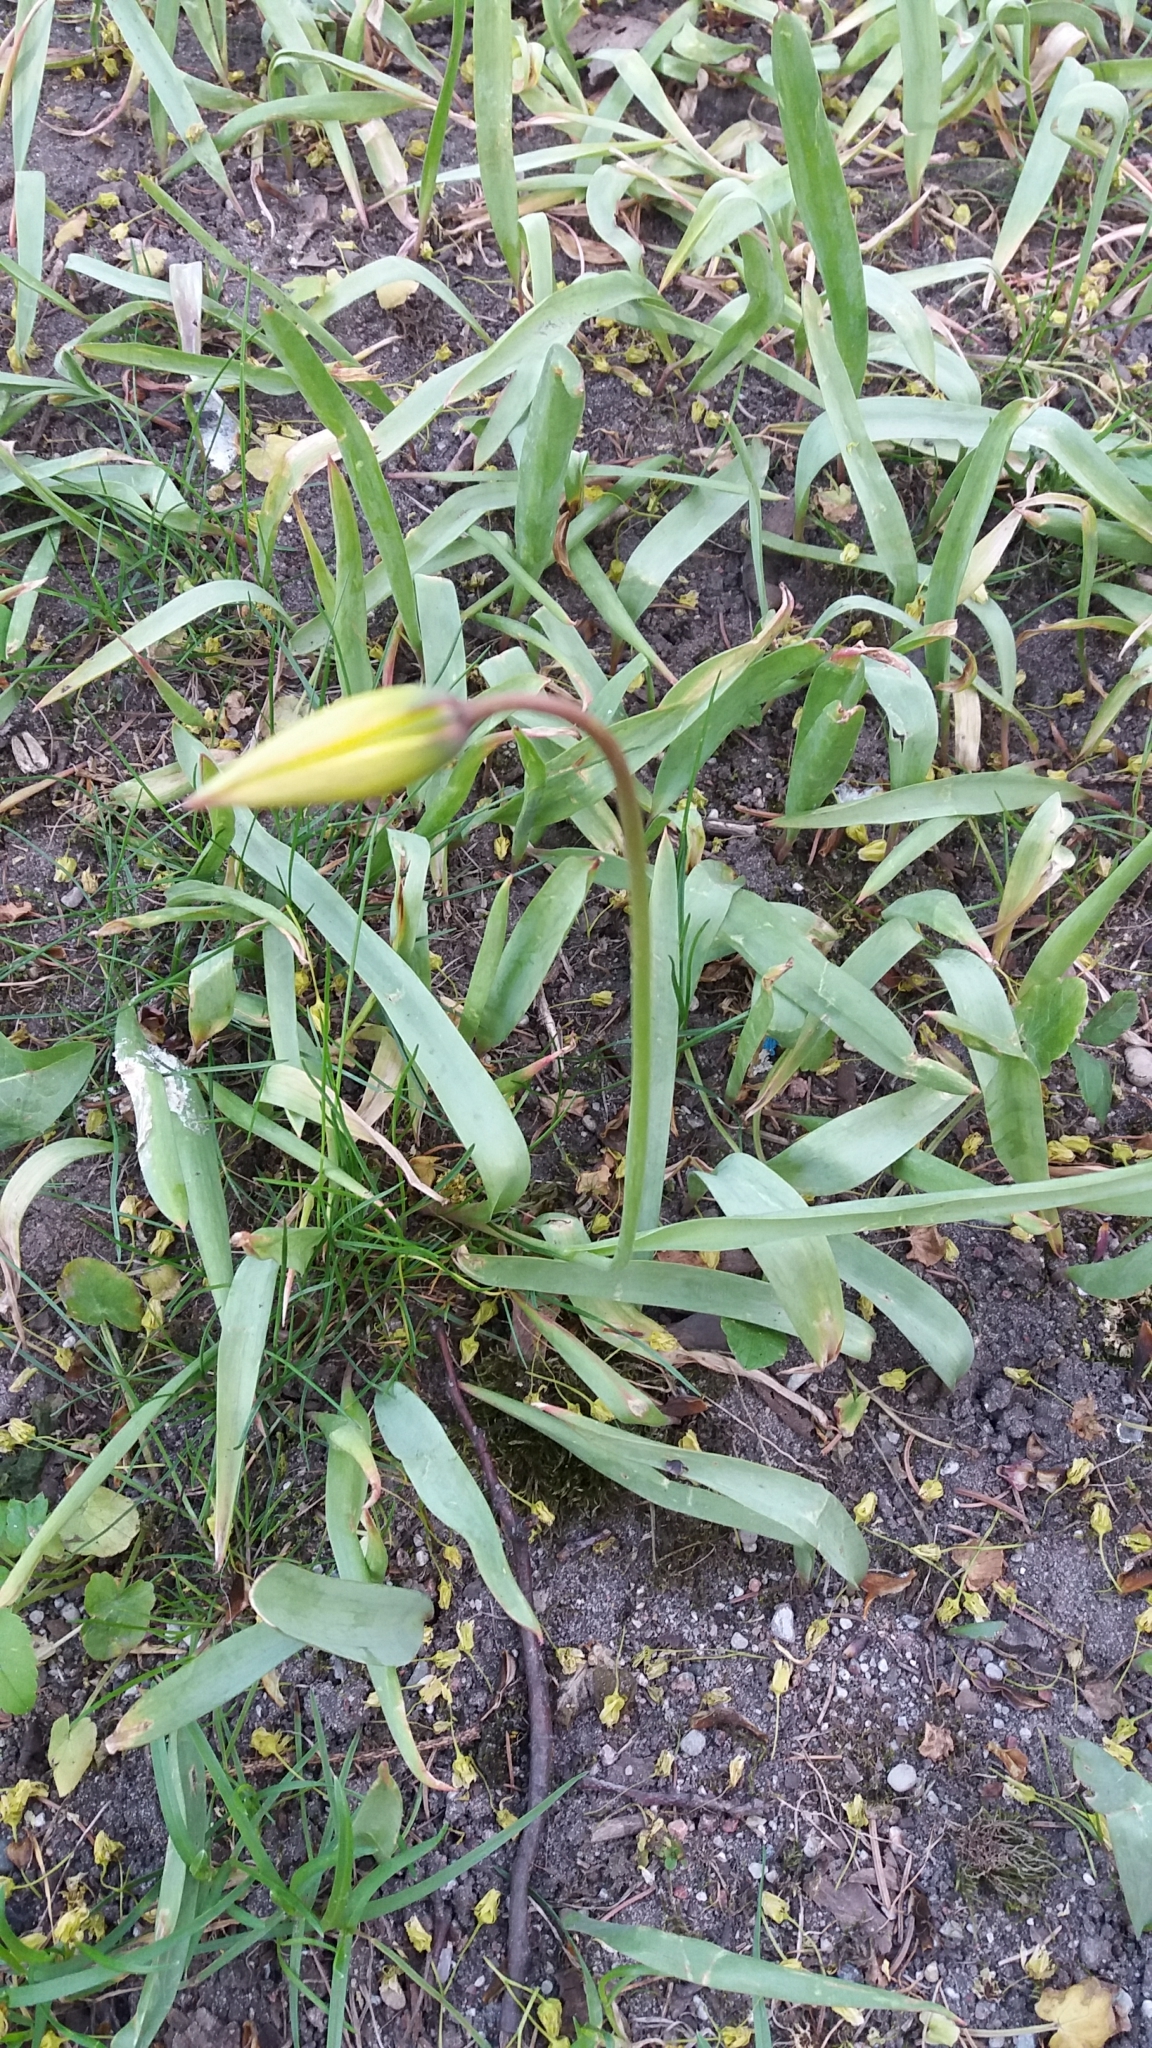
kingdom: Plantae
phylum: Tracheophyta
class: Liliopsida
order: Liliales
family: Liliaceae
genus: Tulipa
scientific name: Tulipa sylvestris
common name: Wild tulip
